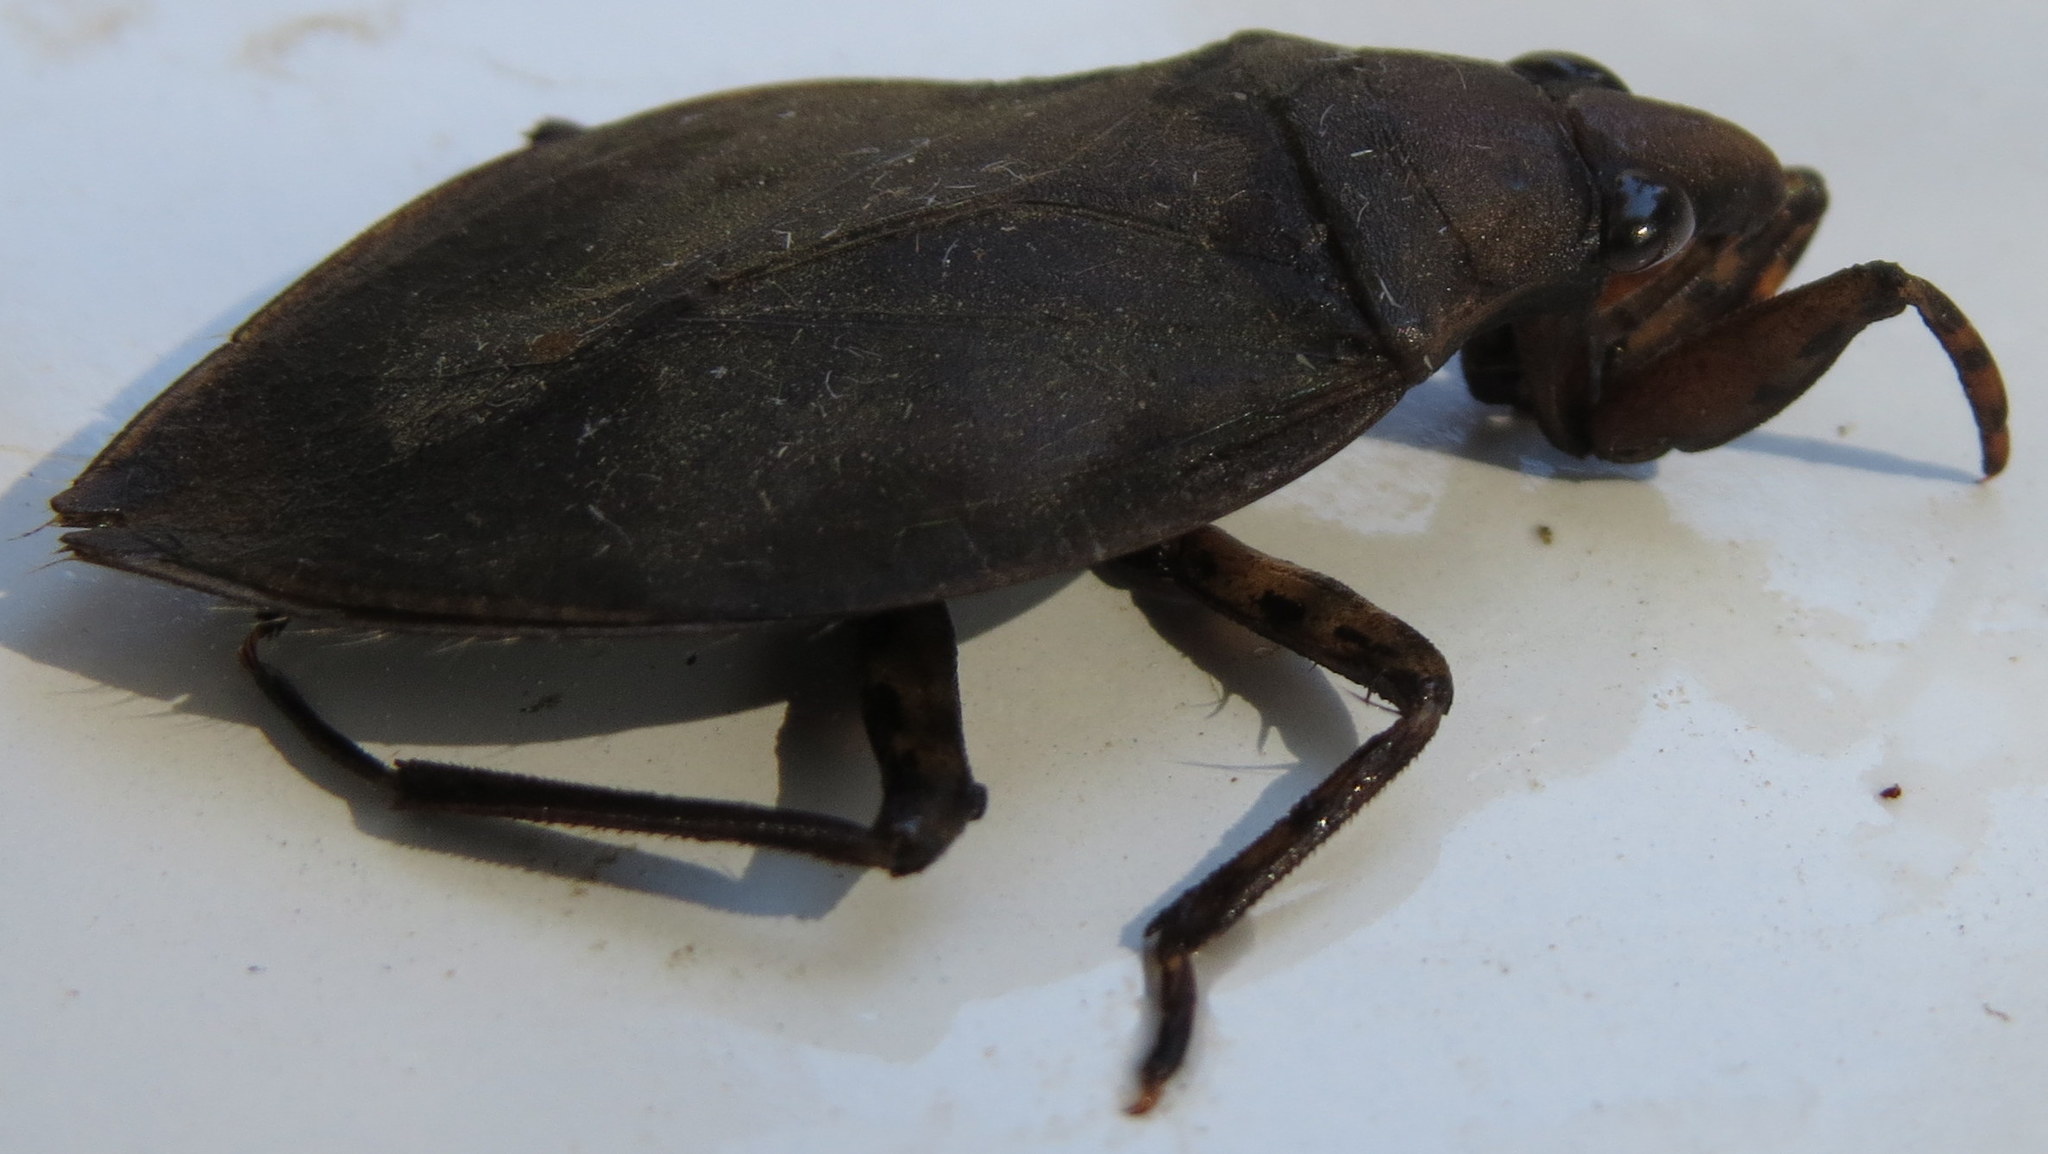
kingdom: Animalia
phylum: Arthropoda
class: Insecta
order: Hemiptera
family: Belostomatidae
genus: Belostoma
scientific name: Belostoma
